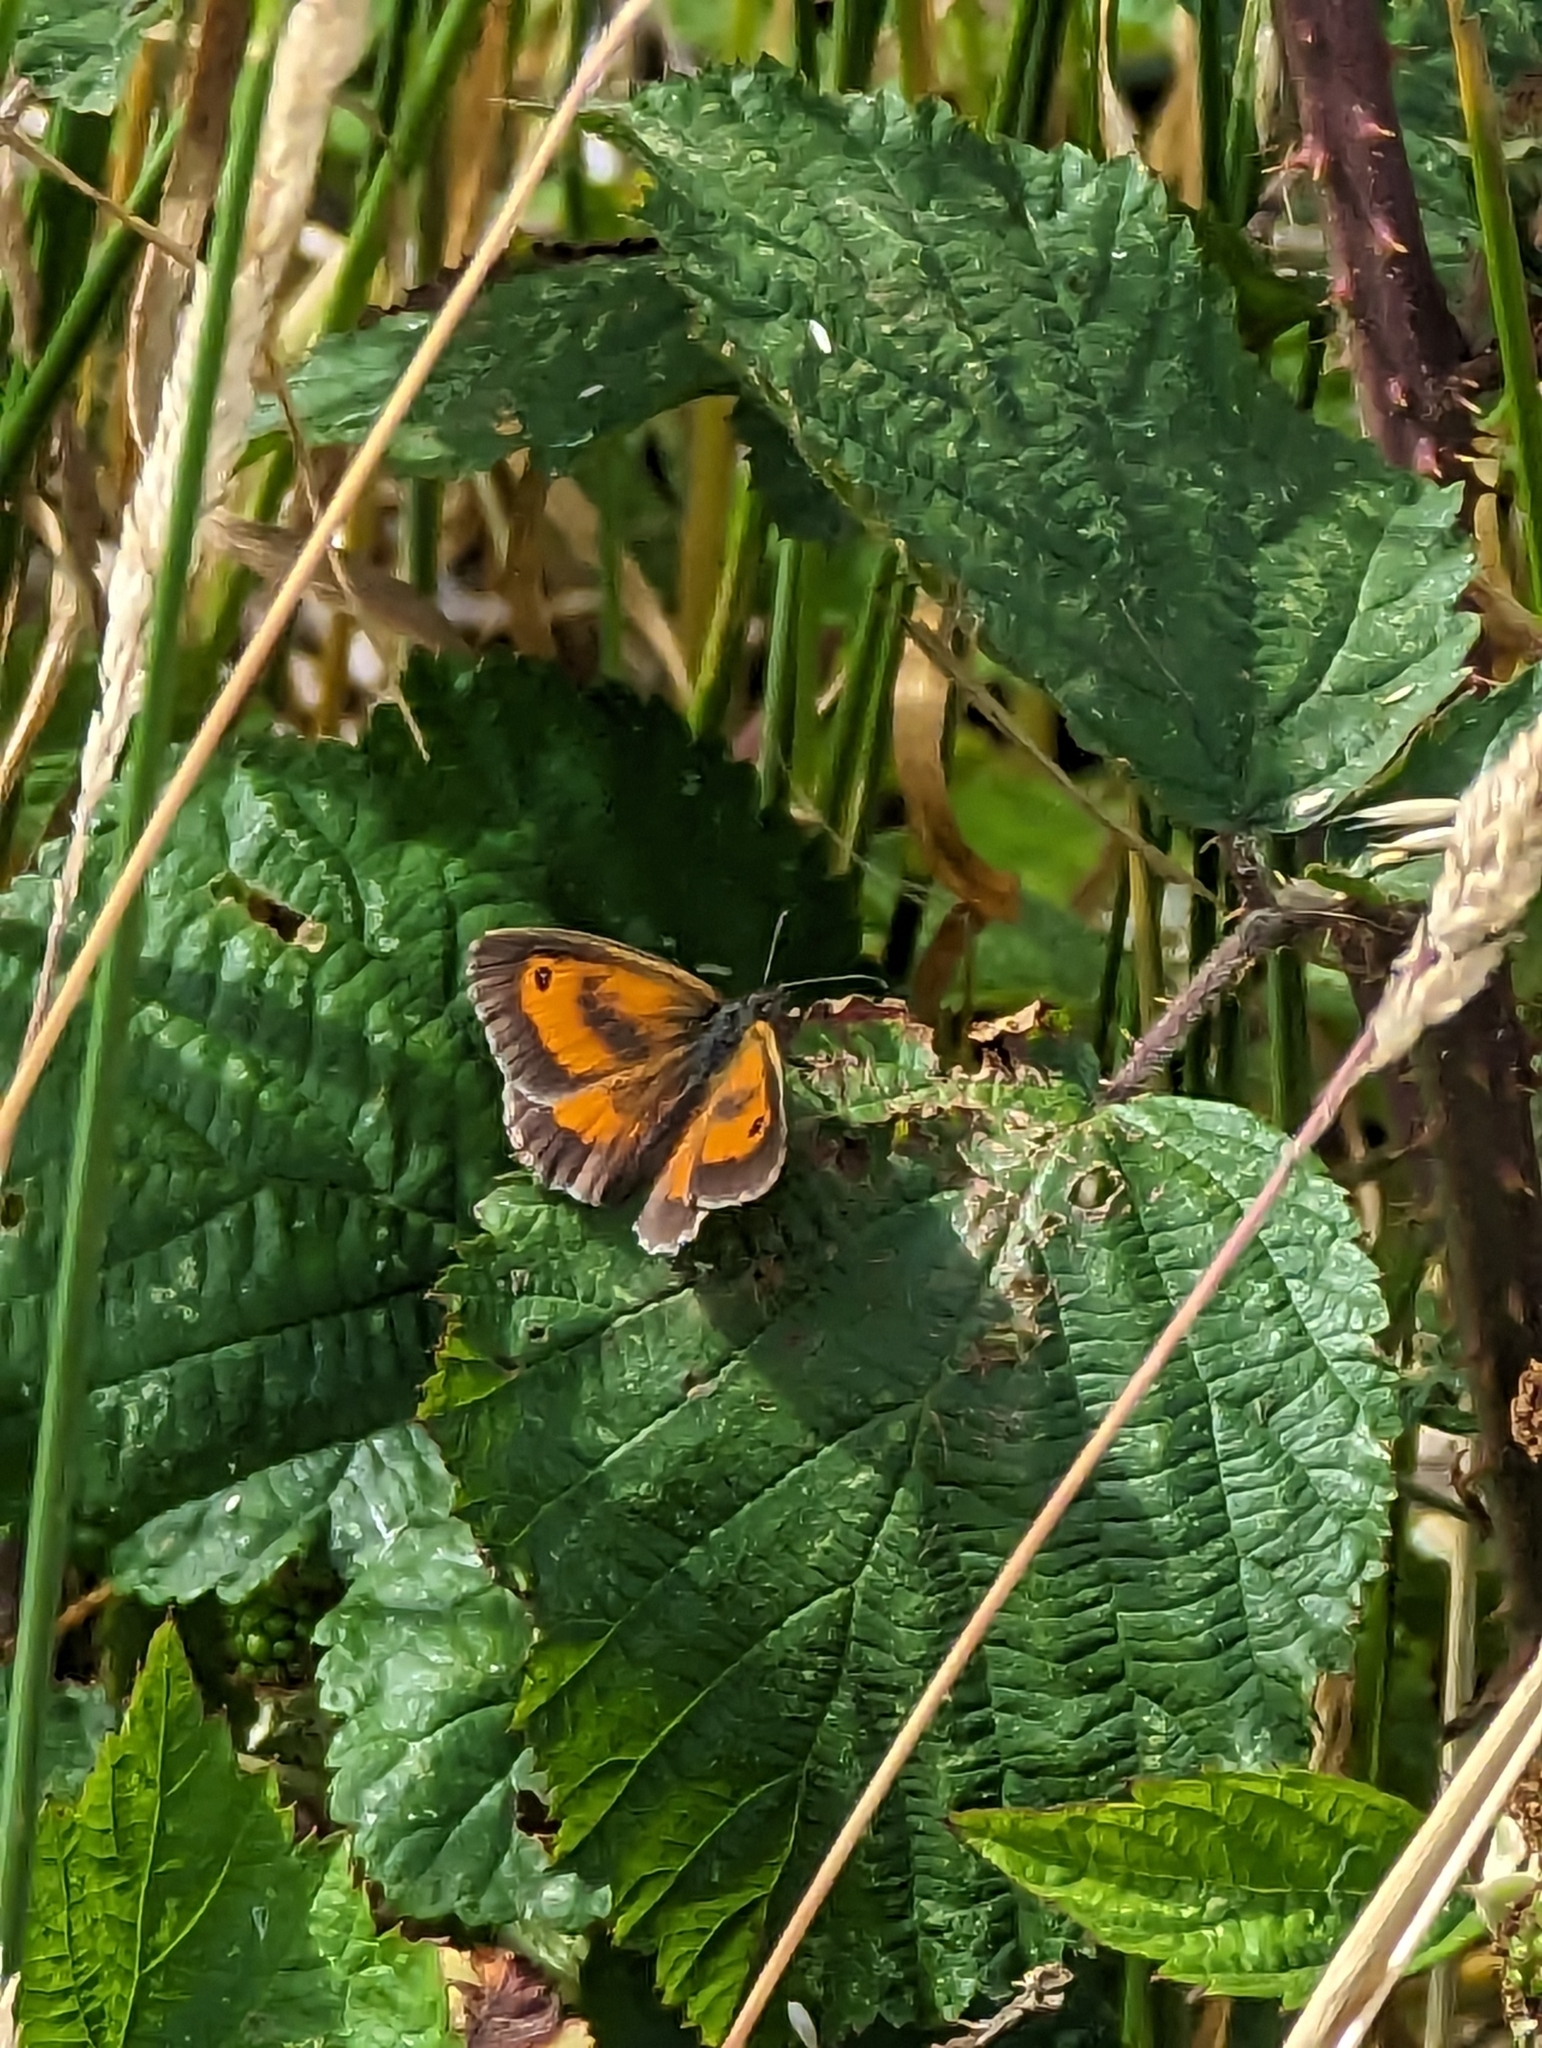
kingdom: Animalia
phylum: Arthropoda
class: Insecta
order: Lepidoptera
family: Nymphalidae
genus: Pyronia
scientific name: Pyronia tithonus
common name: Gatekeeper
